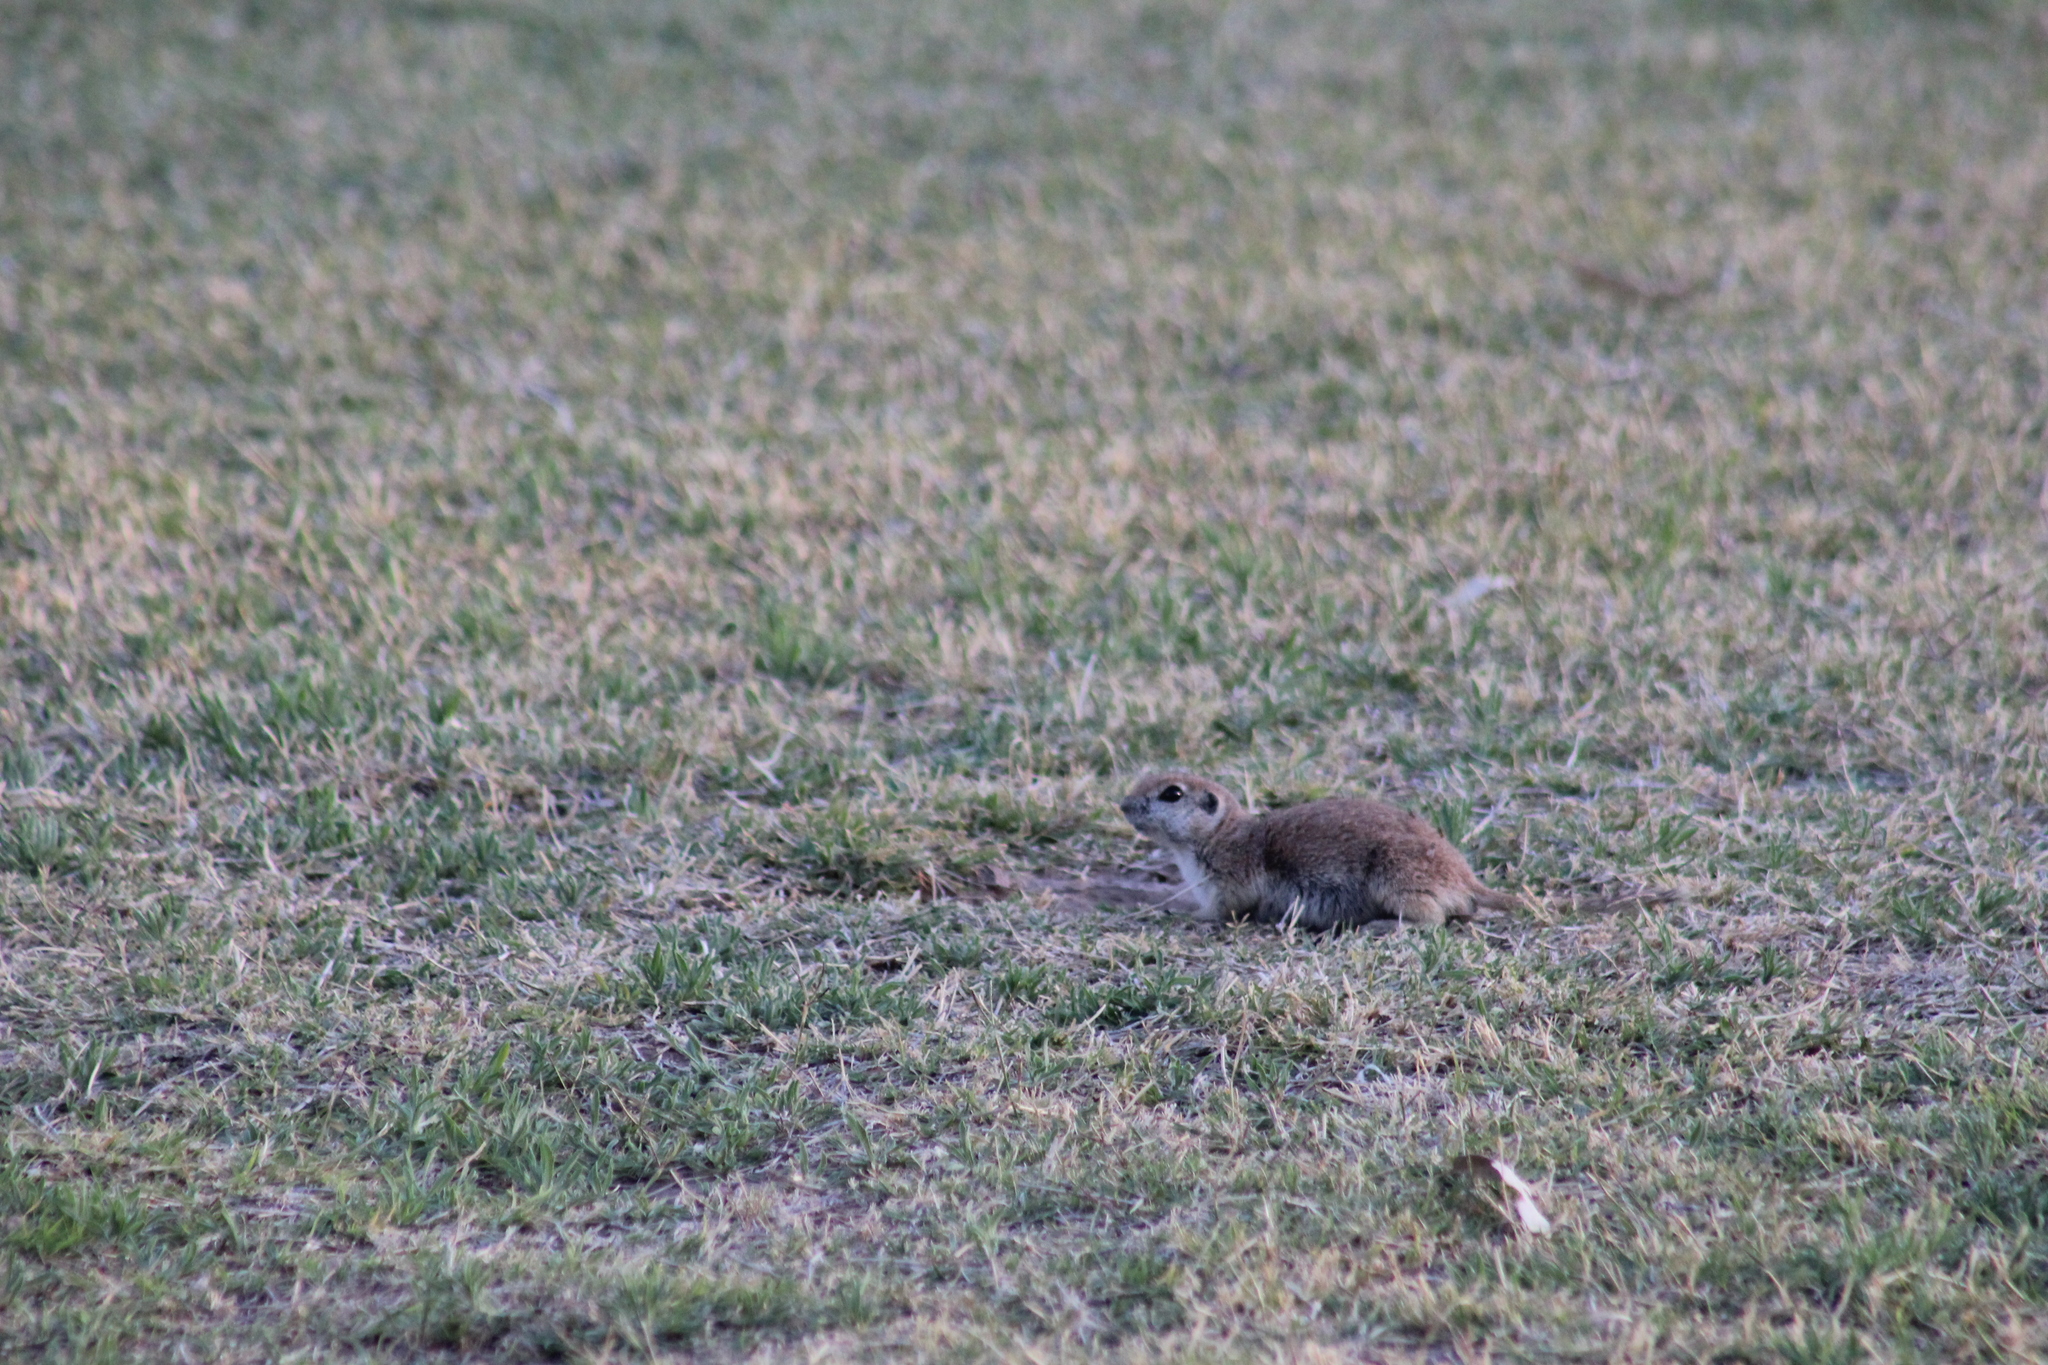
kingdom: Animalia
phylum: Chordata
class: Mammalia
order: Rodentia
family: Sciuridae
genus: Xerospermophilus
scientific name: Xerospermophilus tereticaudus
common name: Round-tailed ground squirrel
